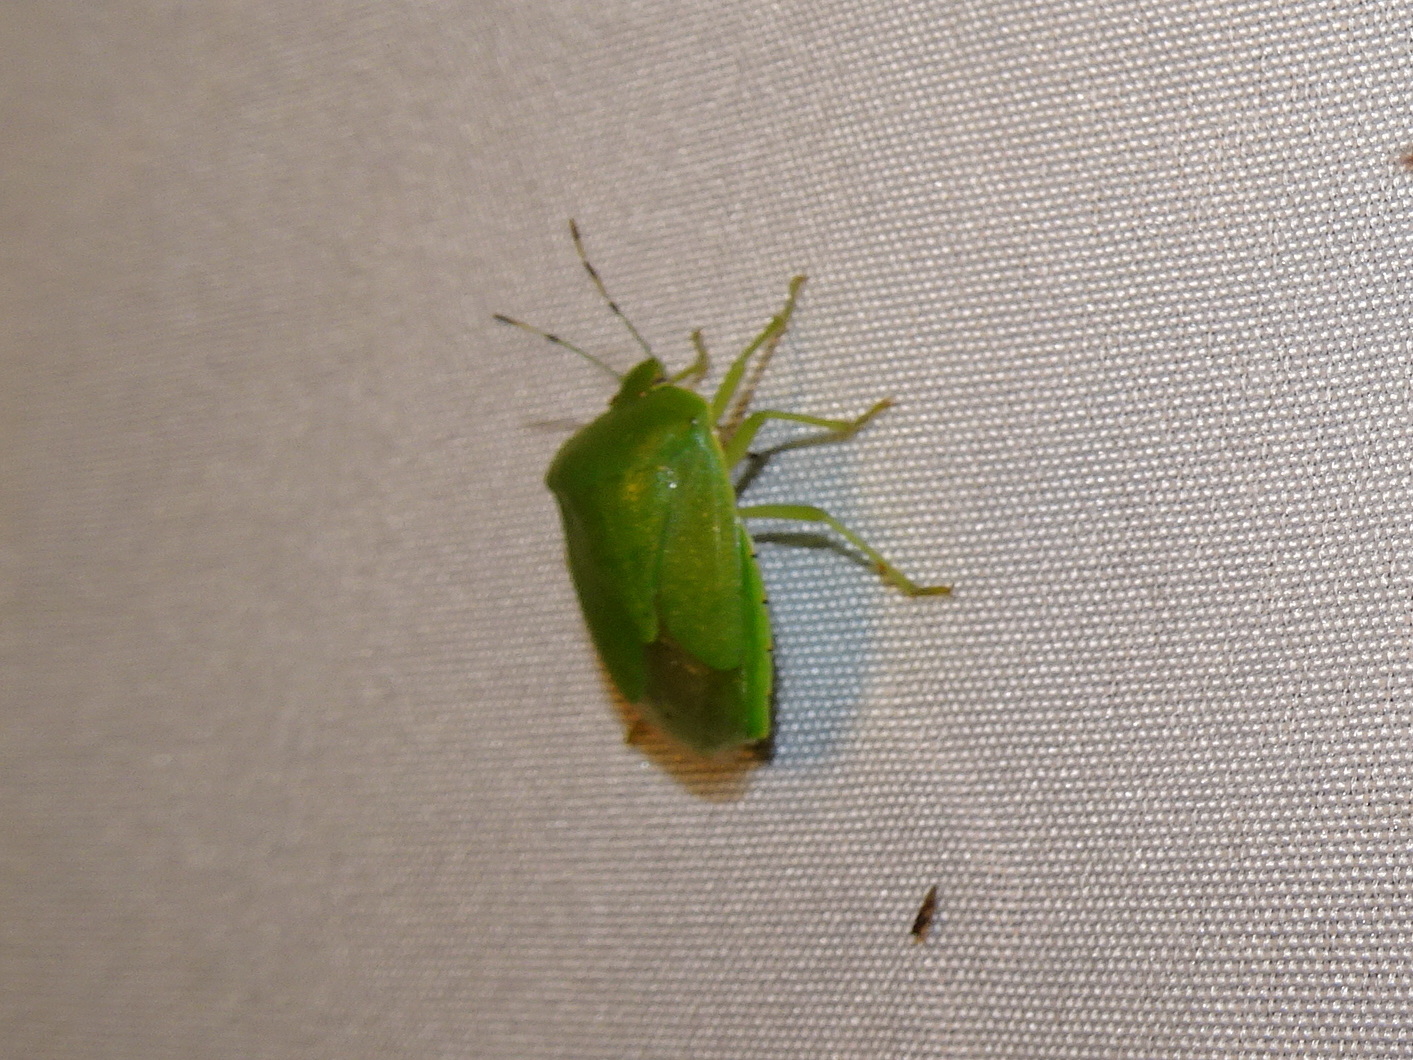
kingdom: Animalia
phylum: Arthropoda
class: Insecta
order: Hemiptera
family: Pentatomidae
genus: Chinavia
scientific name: Chinavia hilaris
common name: Green stink bug
